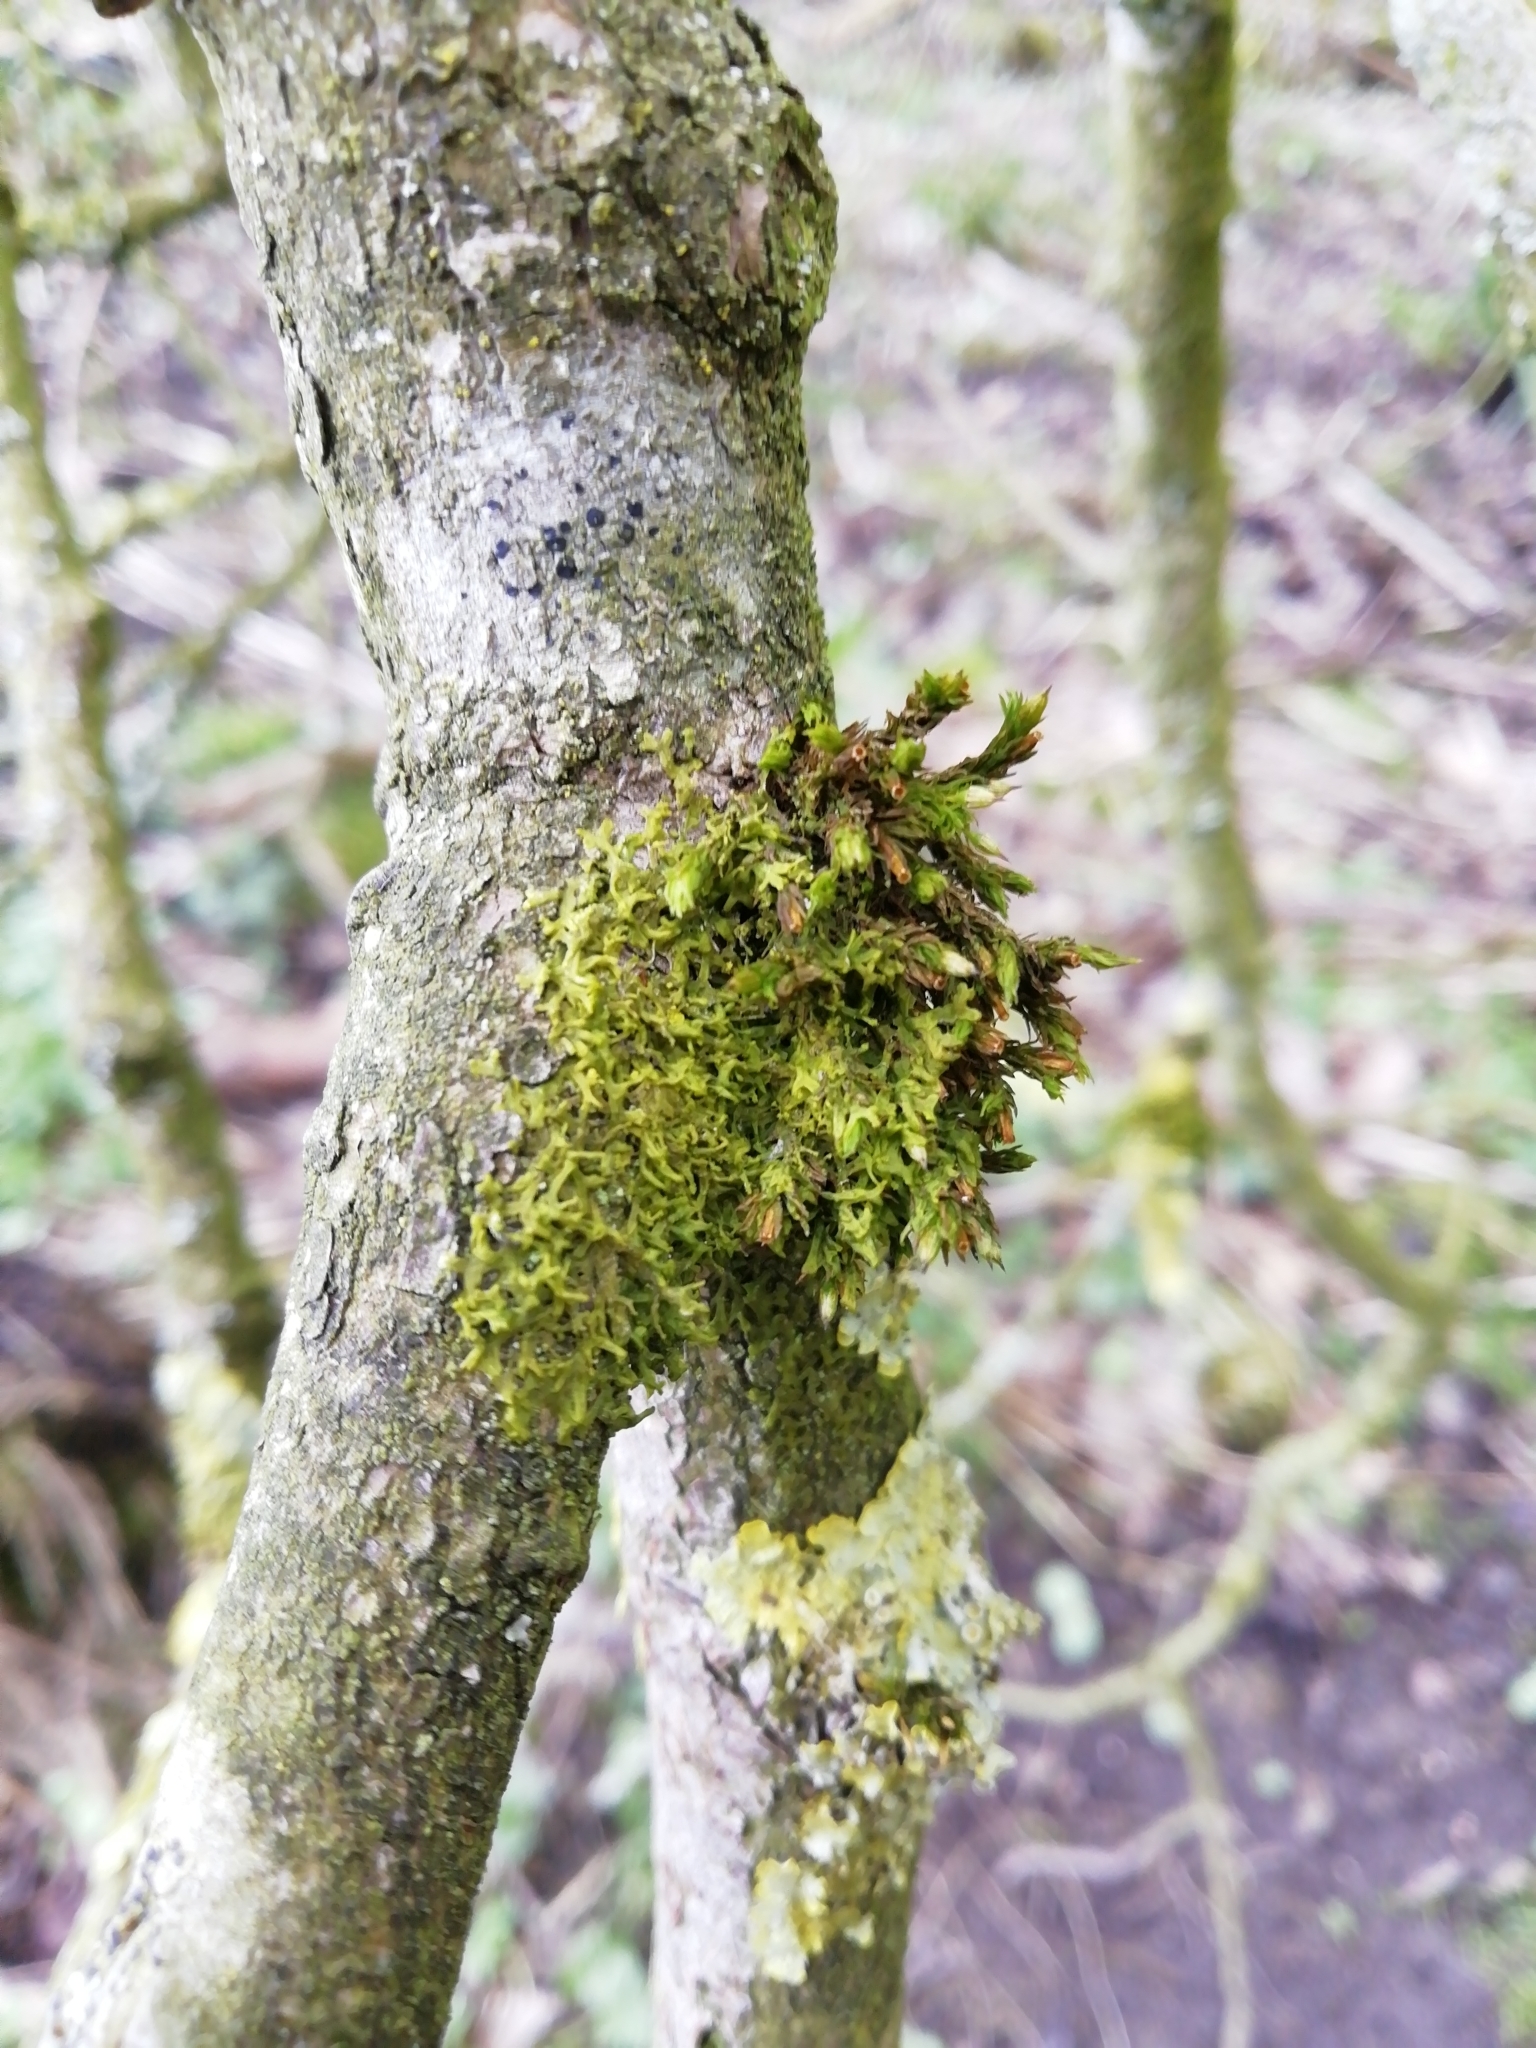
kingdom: Plantae
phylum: Marchantiophyta
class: Jungermanniopsida
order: Metzgeriales
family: Metzgeriaceae
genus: Metzgeria
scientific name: Metzgeria violacea
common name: Blueish veilwort
